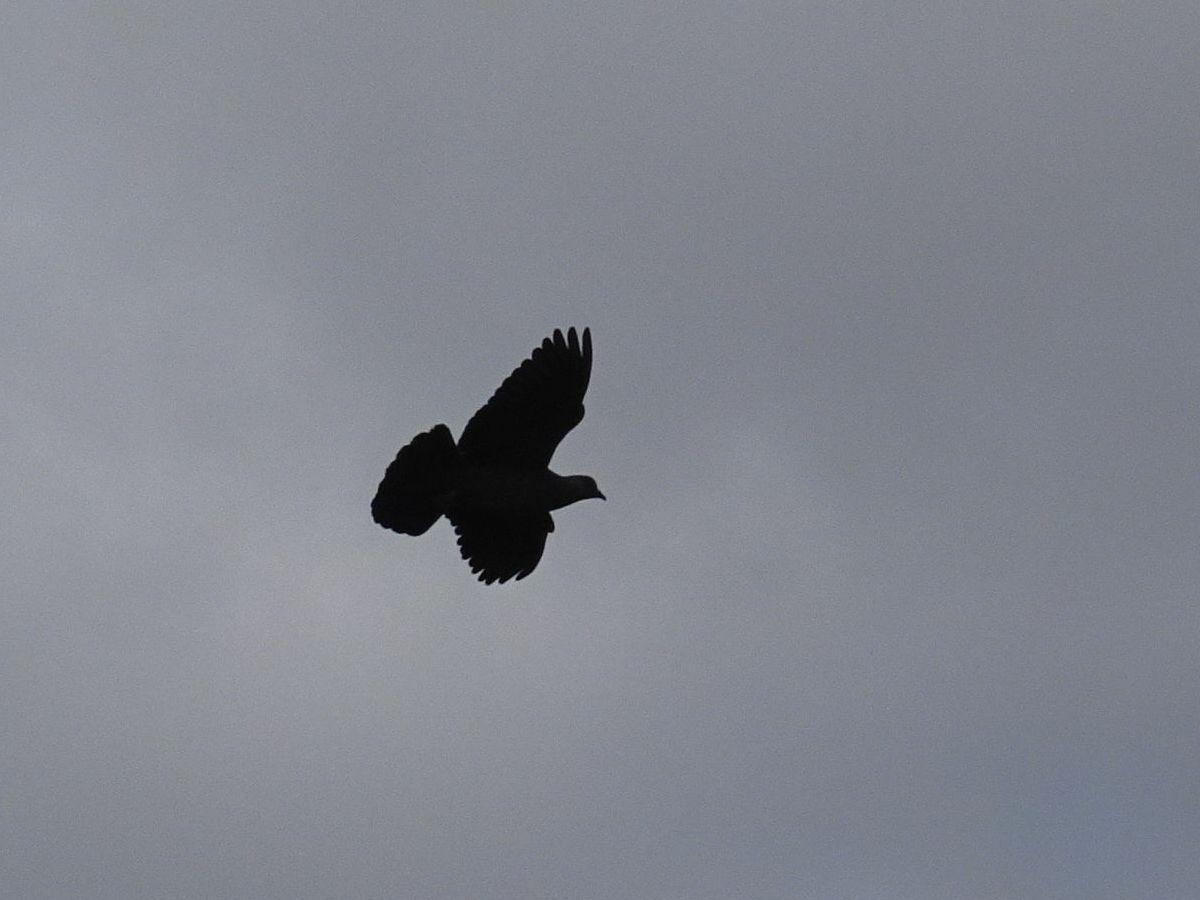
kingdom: Animalia
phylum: Chordata
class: Aves
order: Columbiformes
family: Columbidae
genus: Columba
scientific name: Columba guinea
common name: Speckled pigeon
